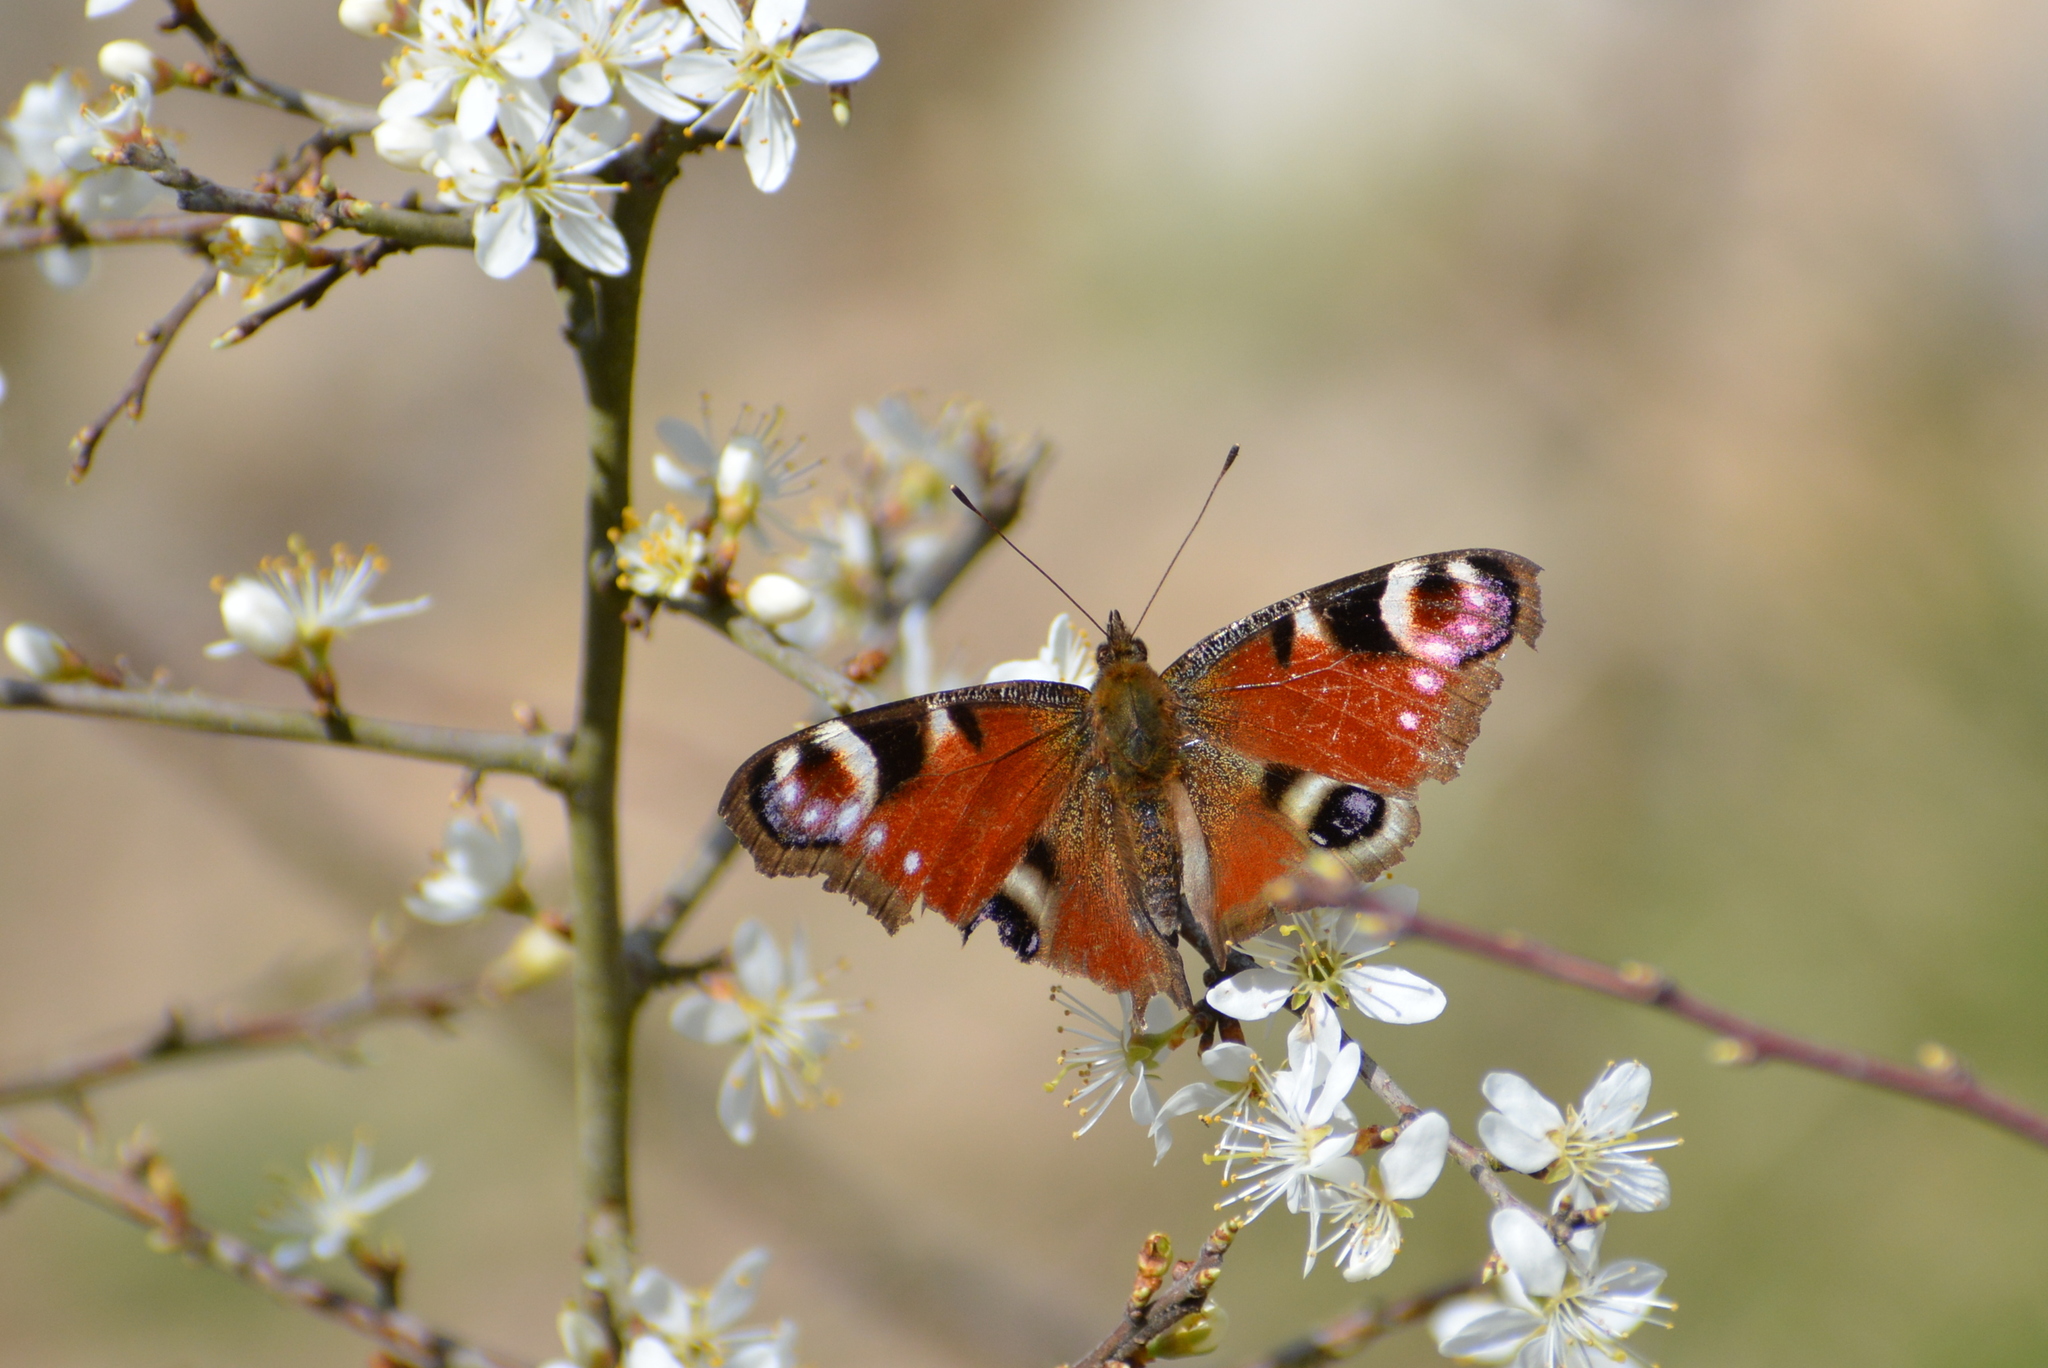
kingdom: Animalia
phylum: Arthropoda
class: Insecta
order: Lepidoptera
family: Nymphalidae
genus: Aglais
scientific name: Aglais io
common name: Peacock
